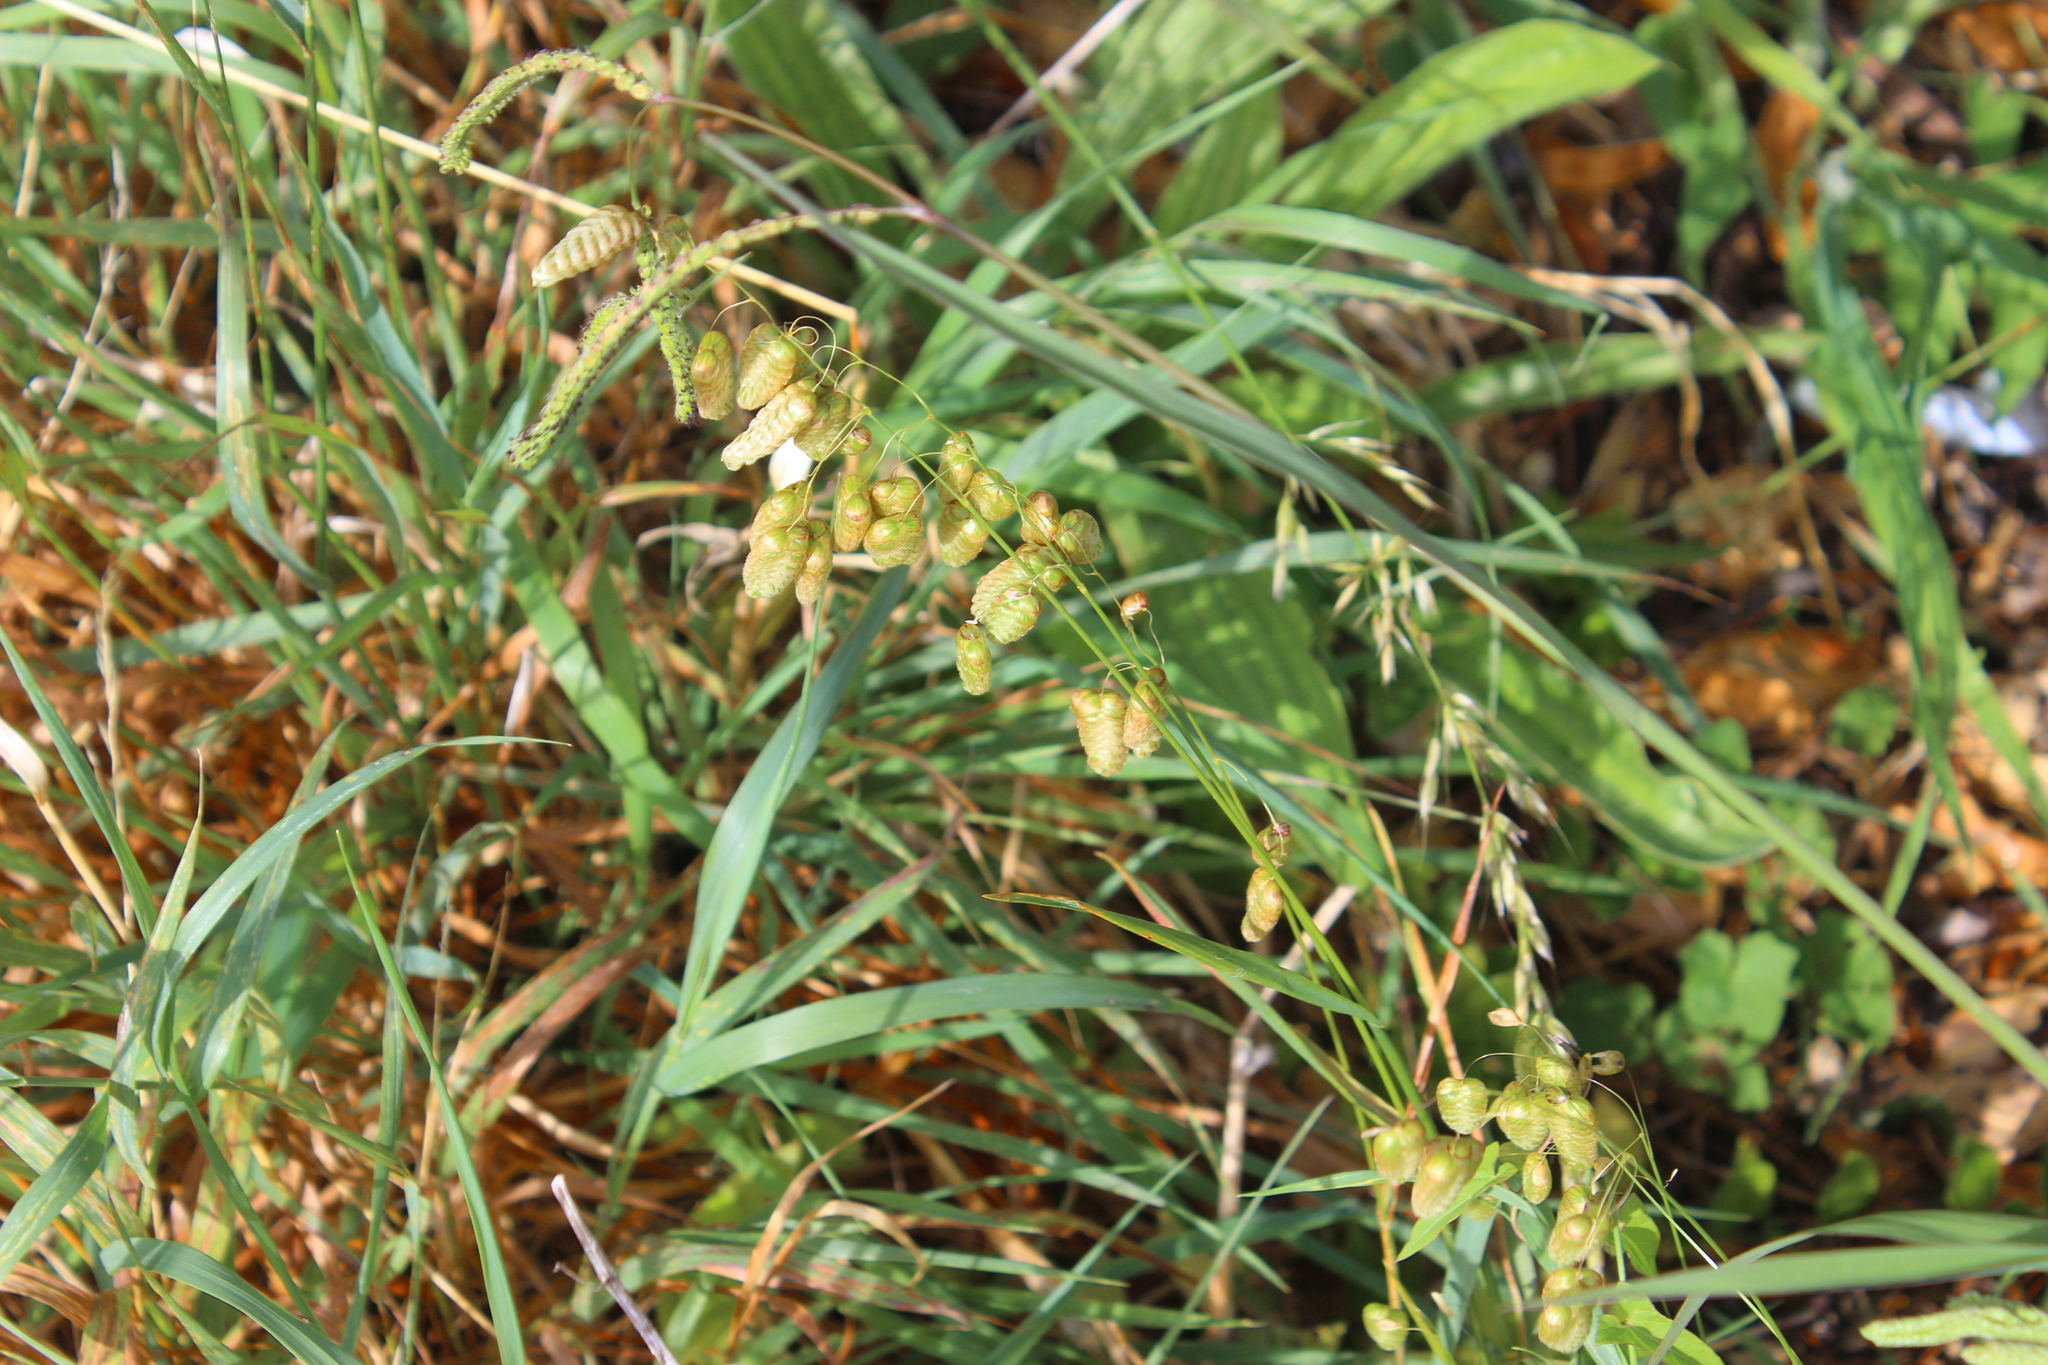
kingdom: Plantae
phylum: Tracheophyta
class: Liliopsida
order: Poales
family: Poaceae
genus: Briza
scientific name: Briza maxima
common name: Big quakinggrass
